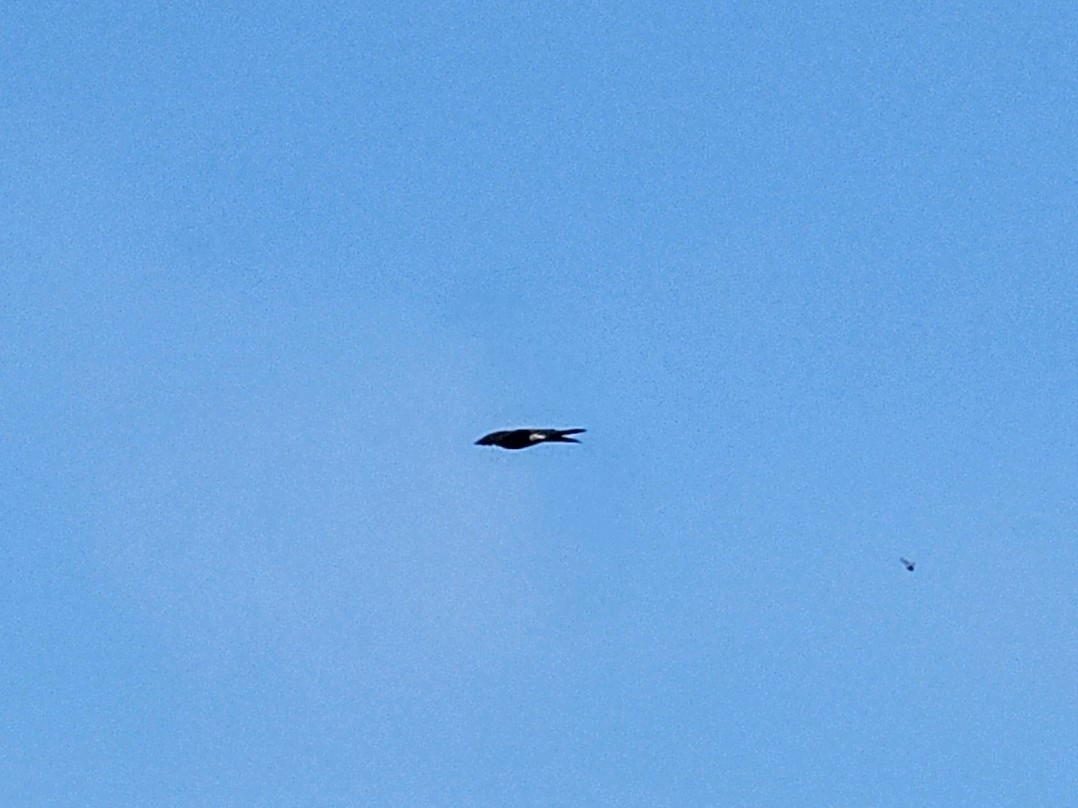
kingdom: Animalia
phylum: Chordata
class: Aves
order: Accipitriformes
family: Accipitridae
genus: Accipiter
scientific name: Accipiter nisus
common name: Eurasian sparrowhawk
